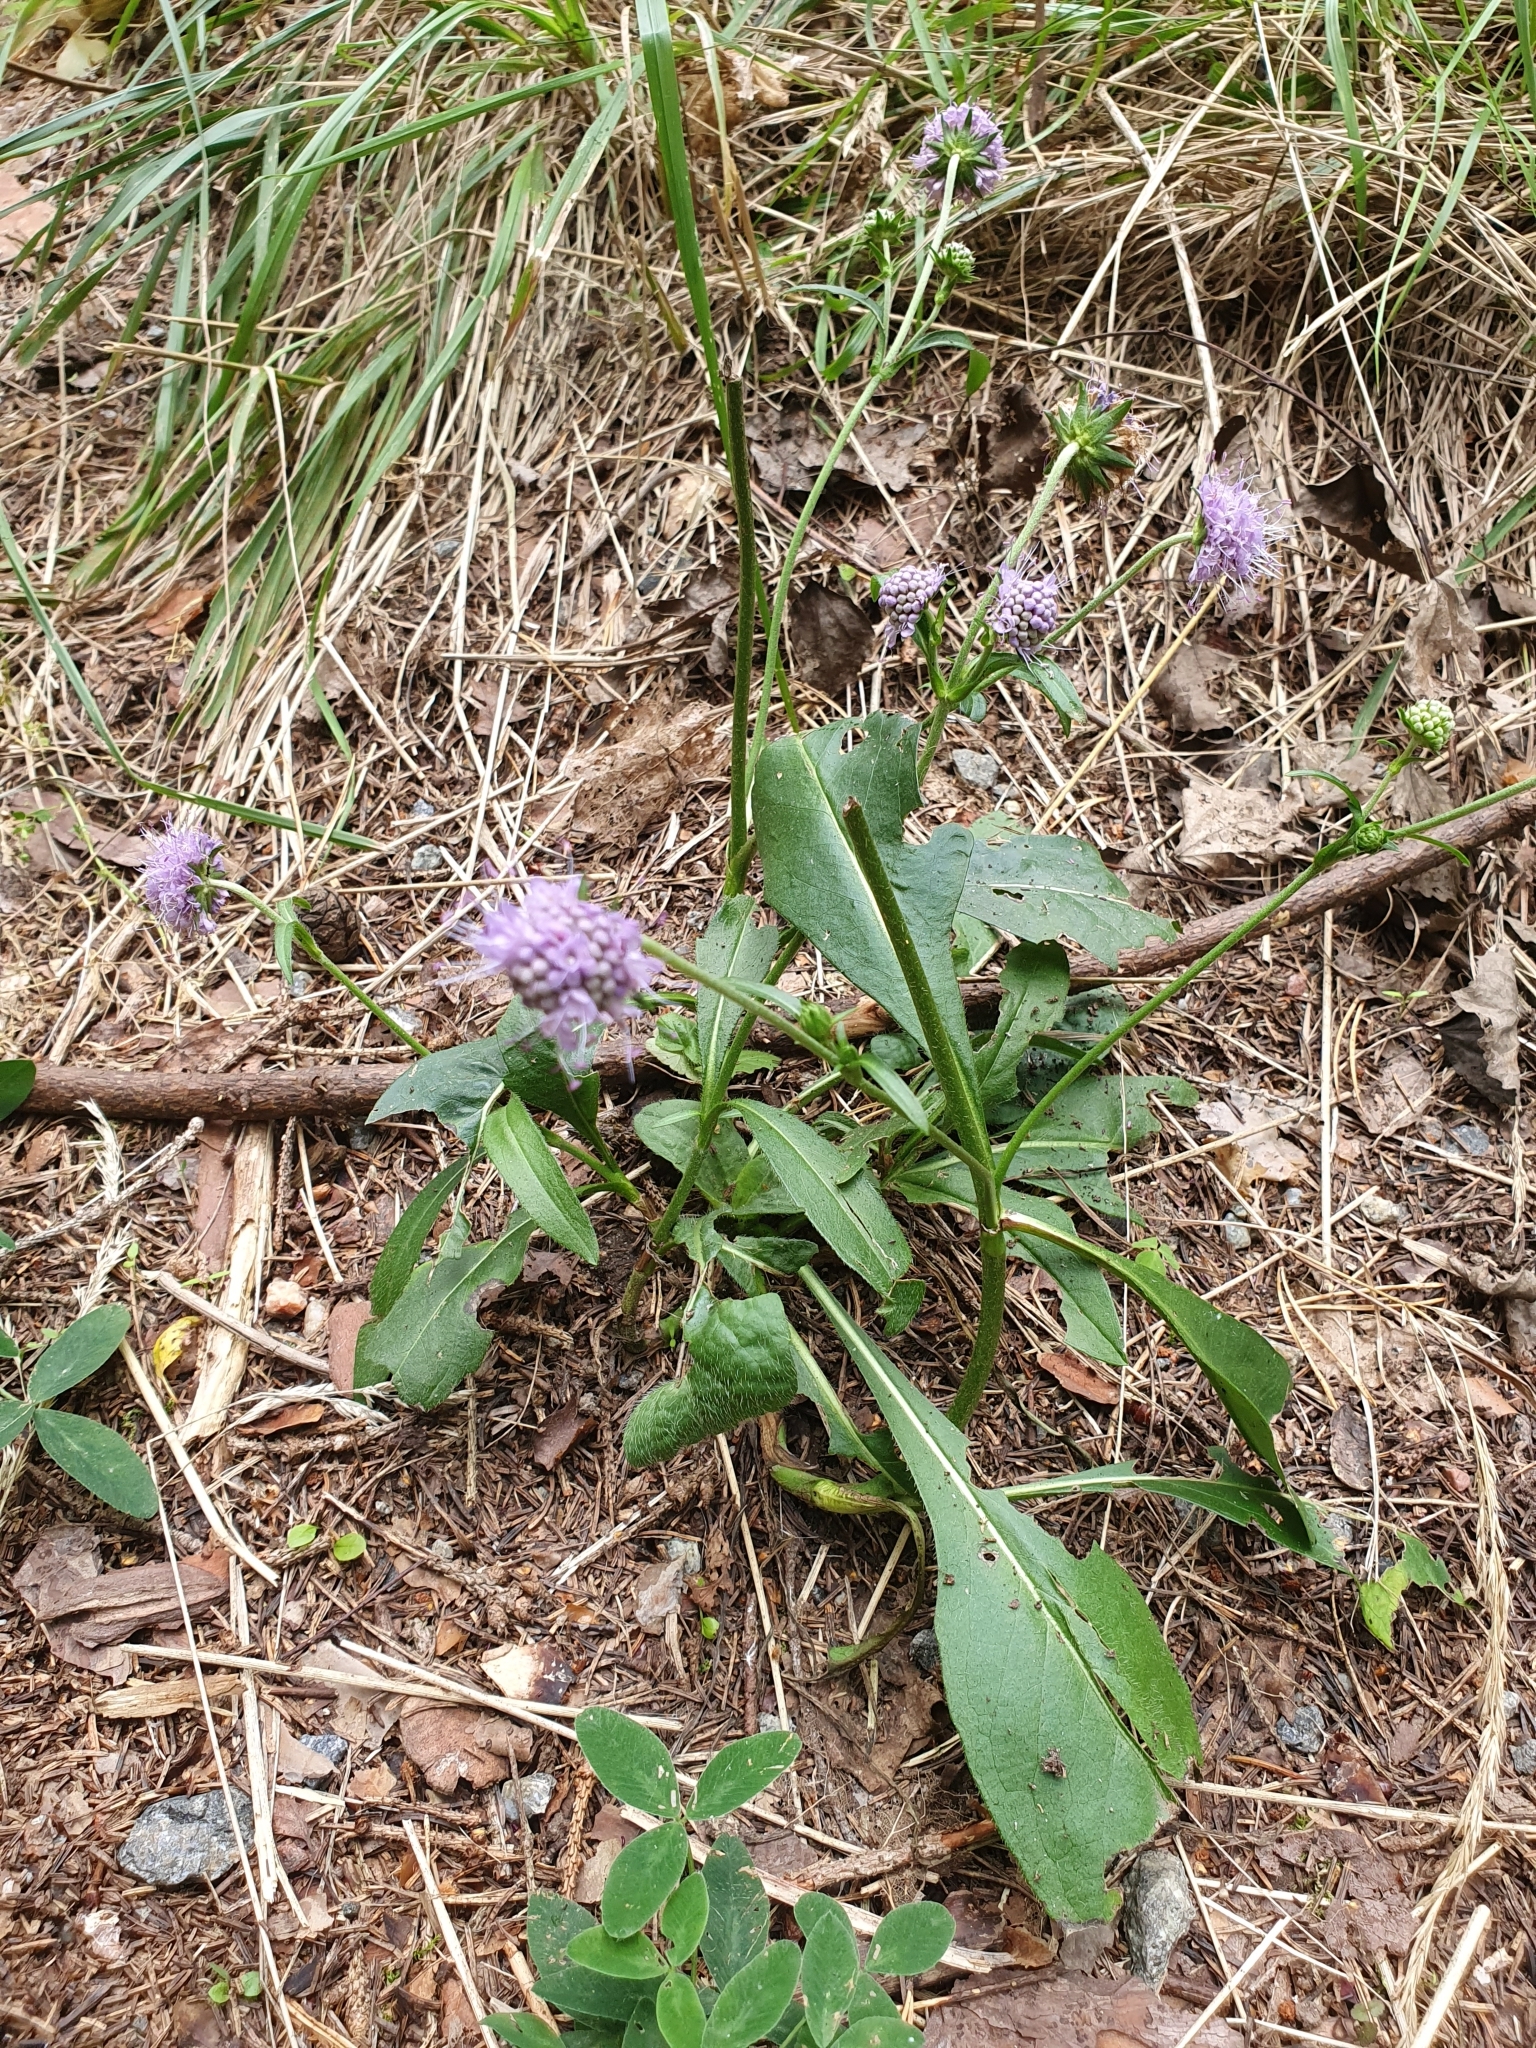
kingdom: Plantae
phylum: Tracheophyta
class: Magnoliopsida
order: Dipsacales
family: Caprifoliaceae
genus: Succisa
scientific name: Succisa pratensis
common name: Devil's-bit
